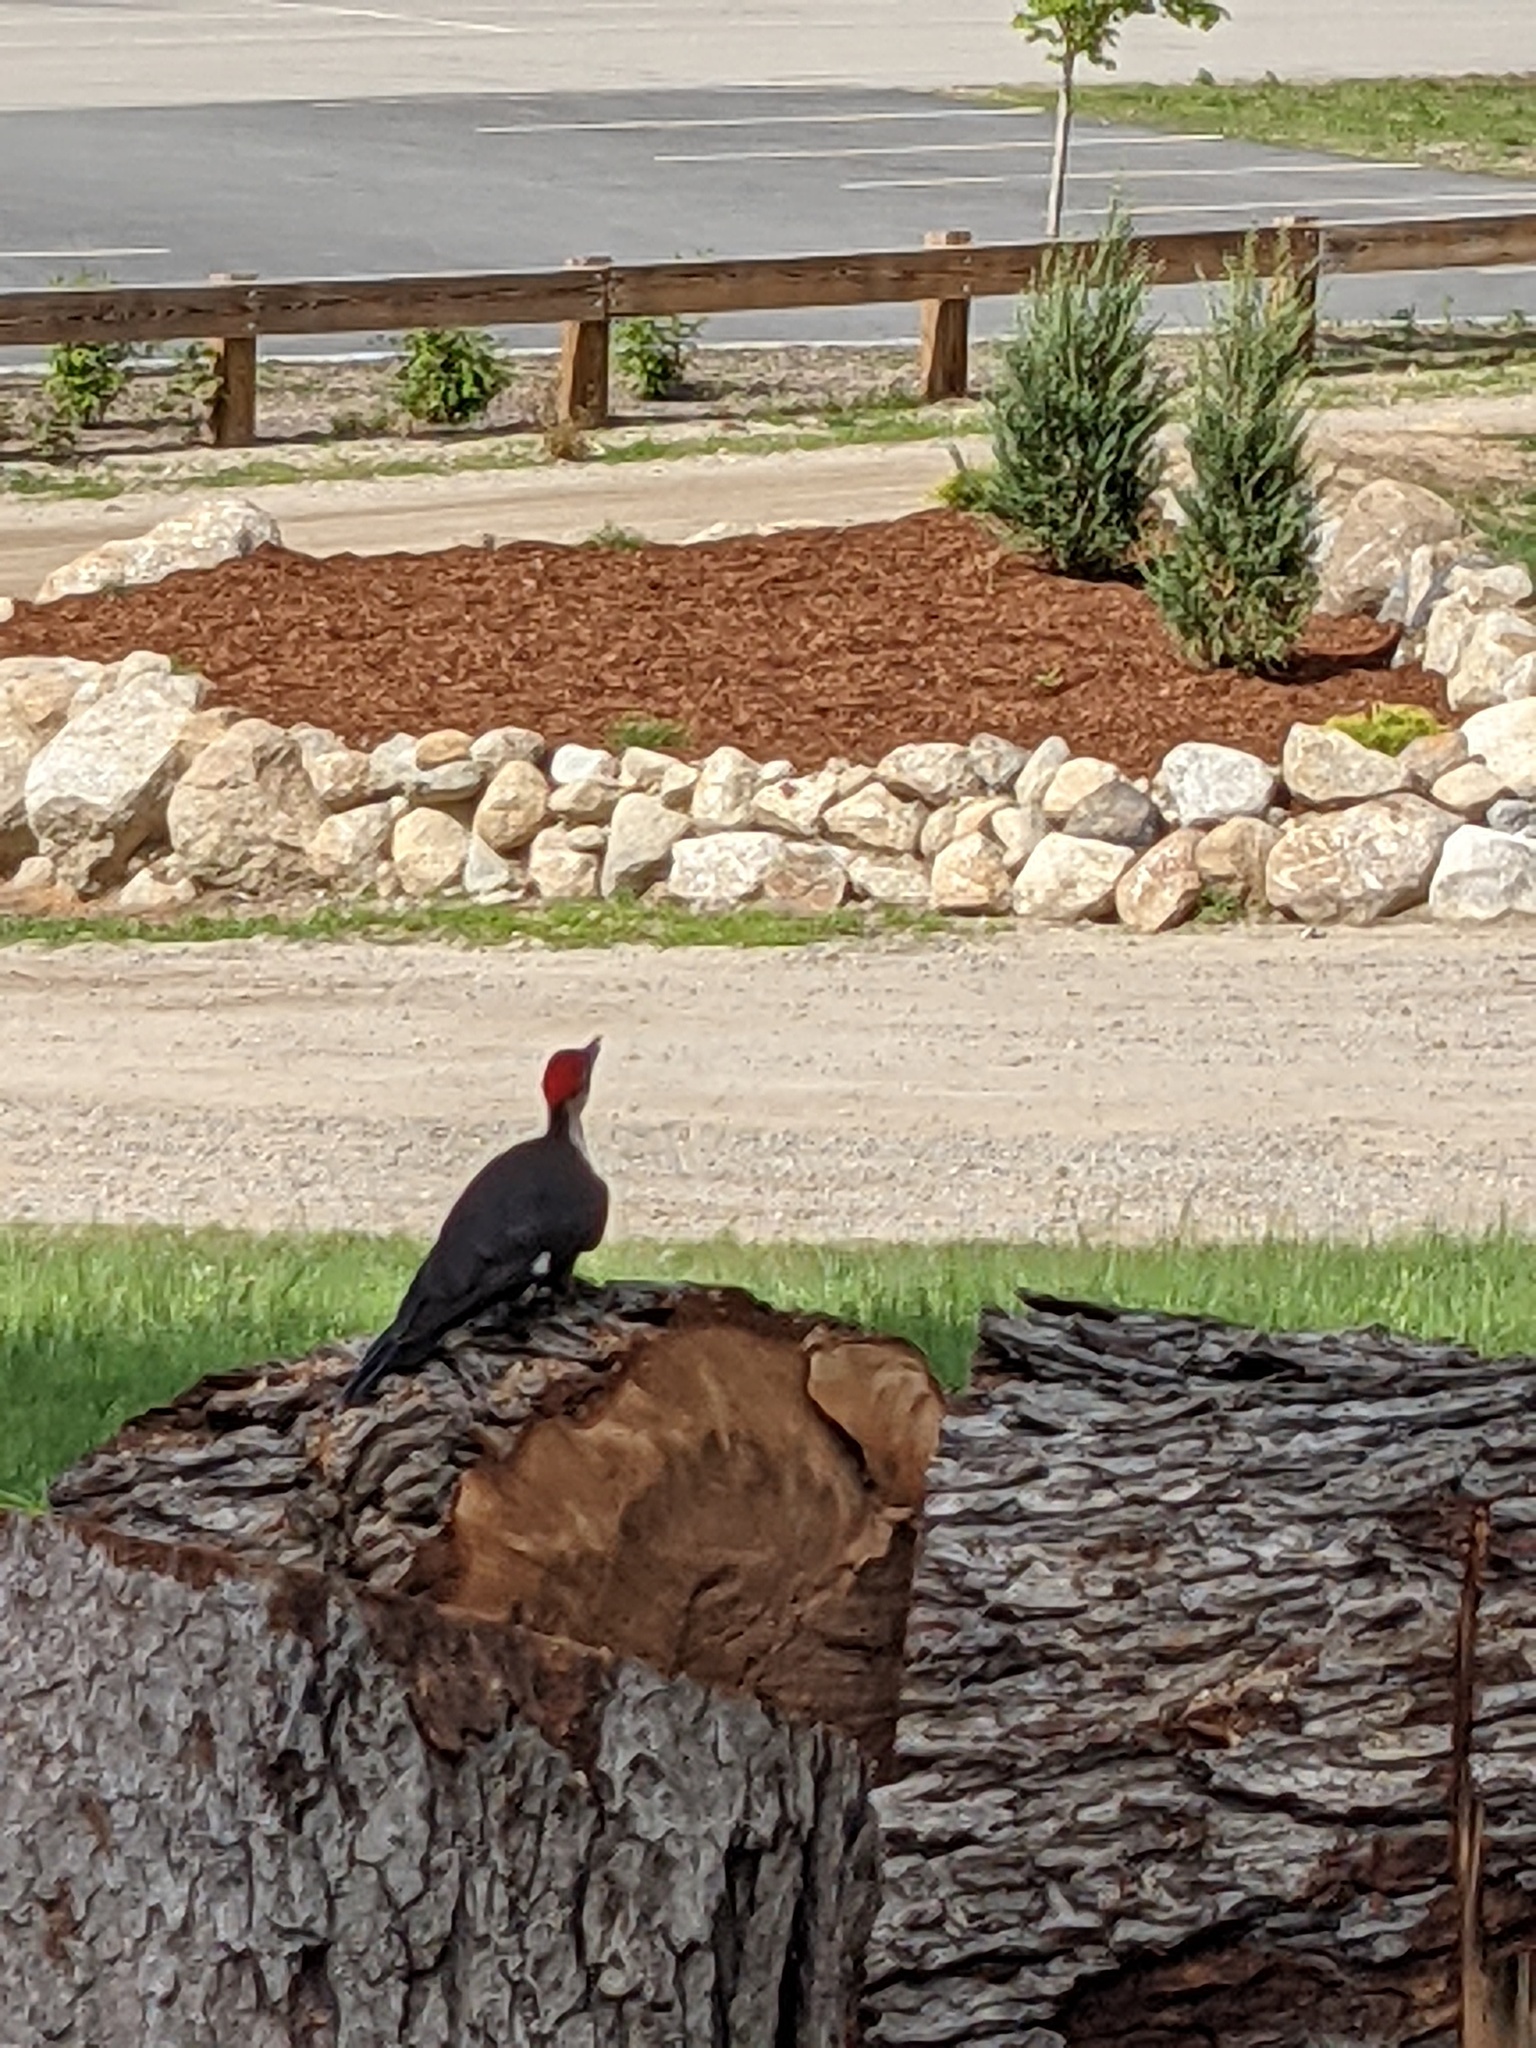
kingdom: Animalia
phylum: Chordata
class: Aves
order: Piciformes
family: Picidae
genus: Dryocopus
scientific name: Dryocopus pileatus
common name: Pileated woodpecker
